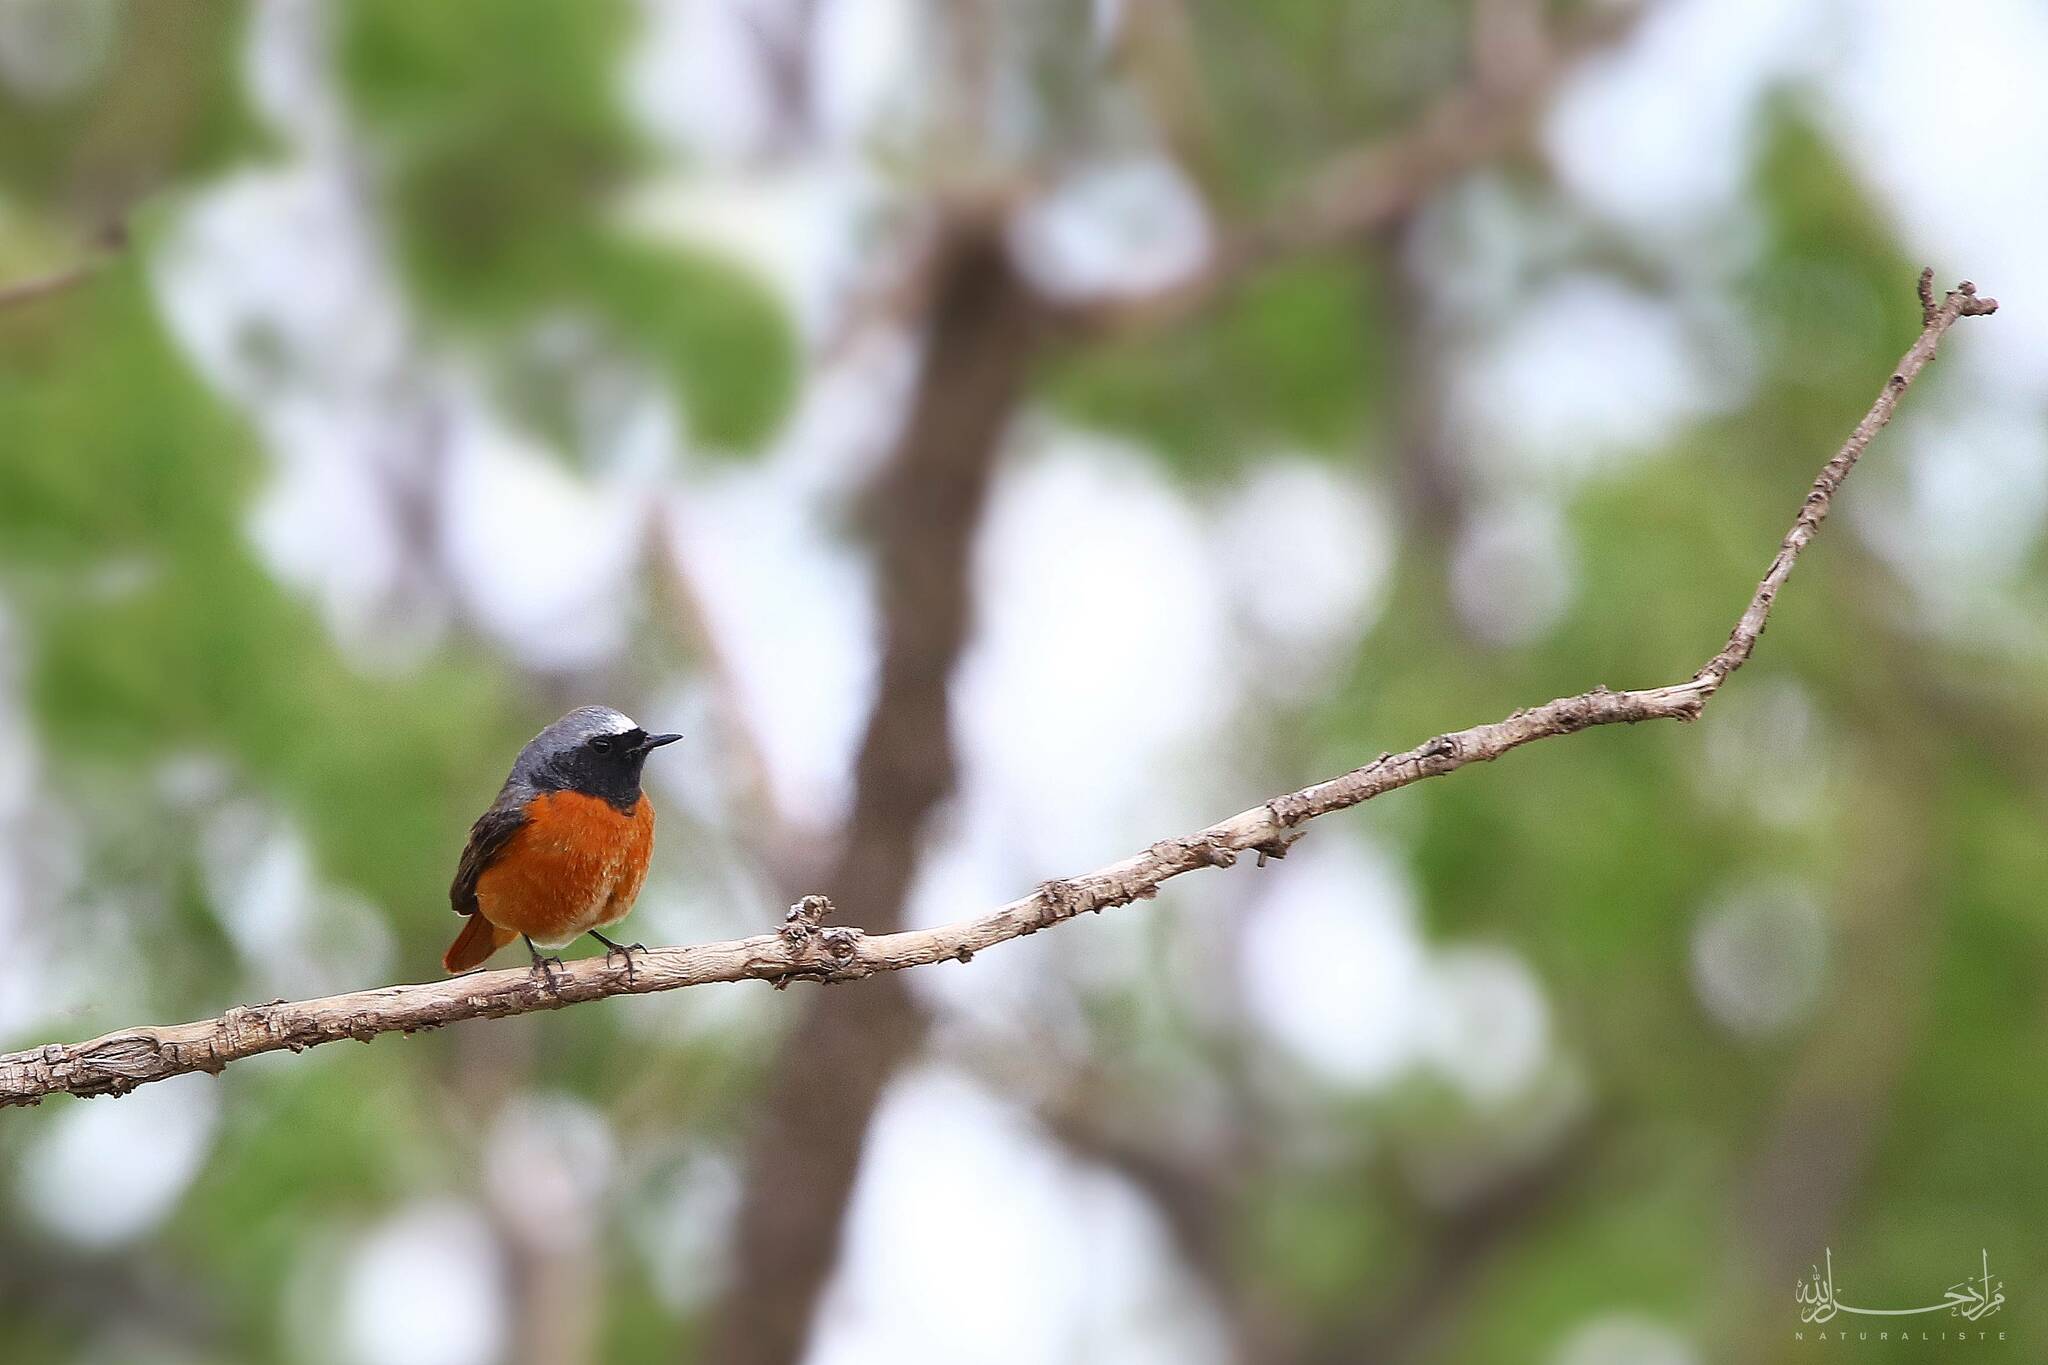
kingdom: Animalia
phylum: Chordata
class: Aves
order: Passeriformes
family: Muscicapidae
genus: Phoenicurus
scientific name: Phoenicurus phoenicurus
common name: Common redstart
